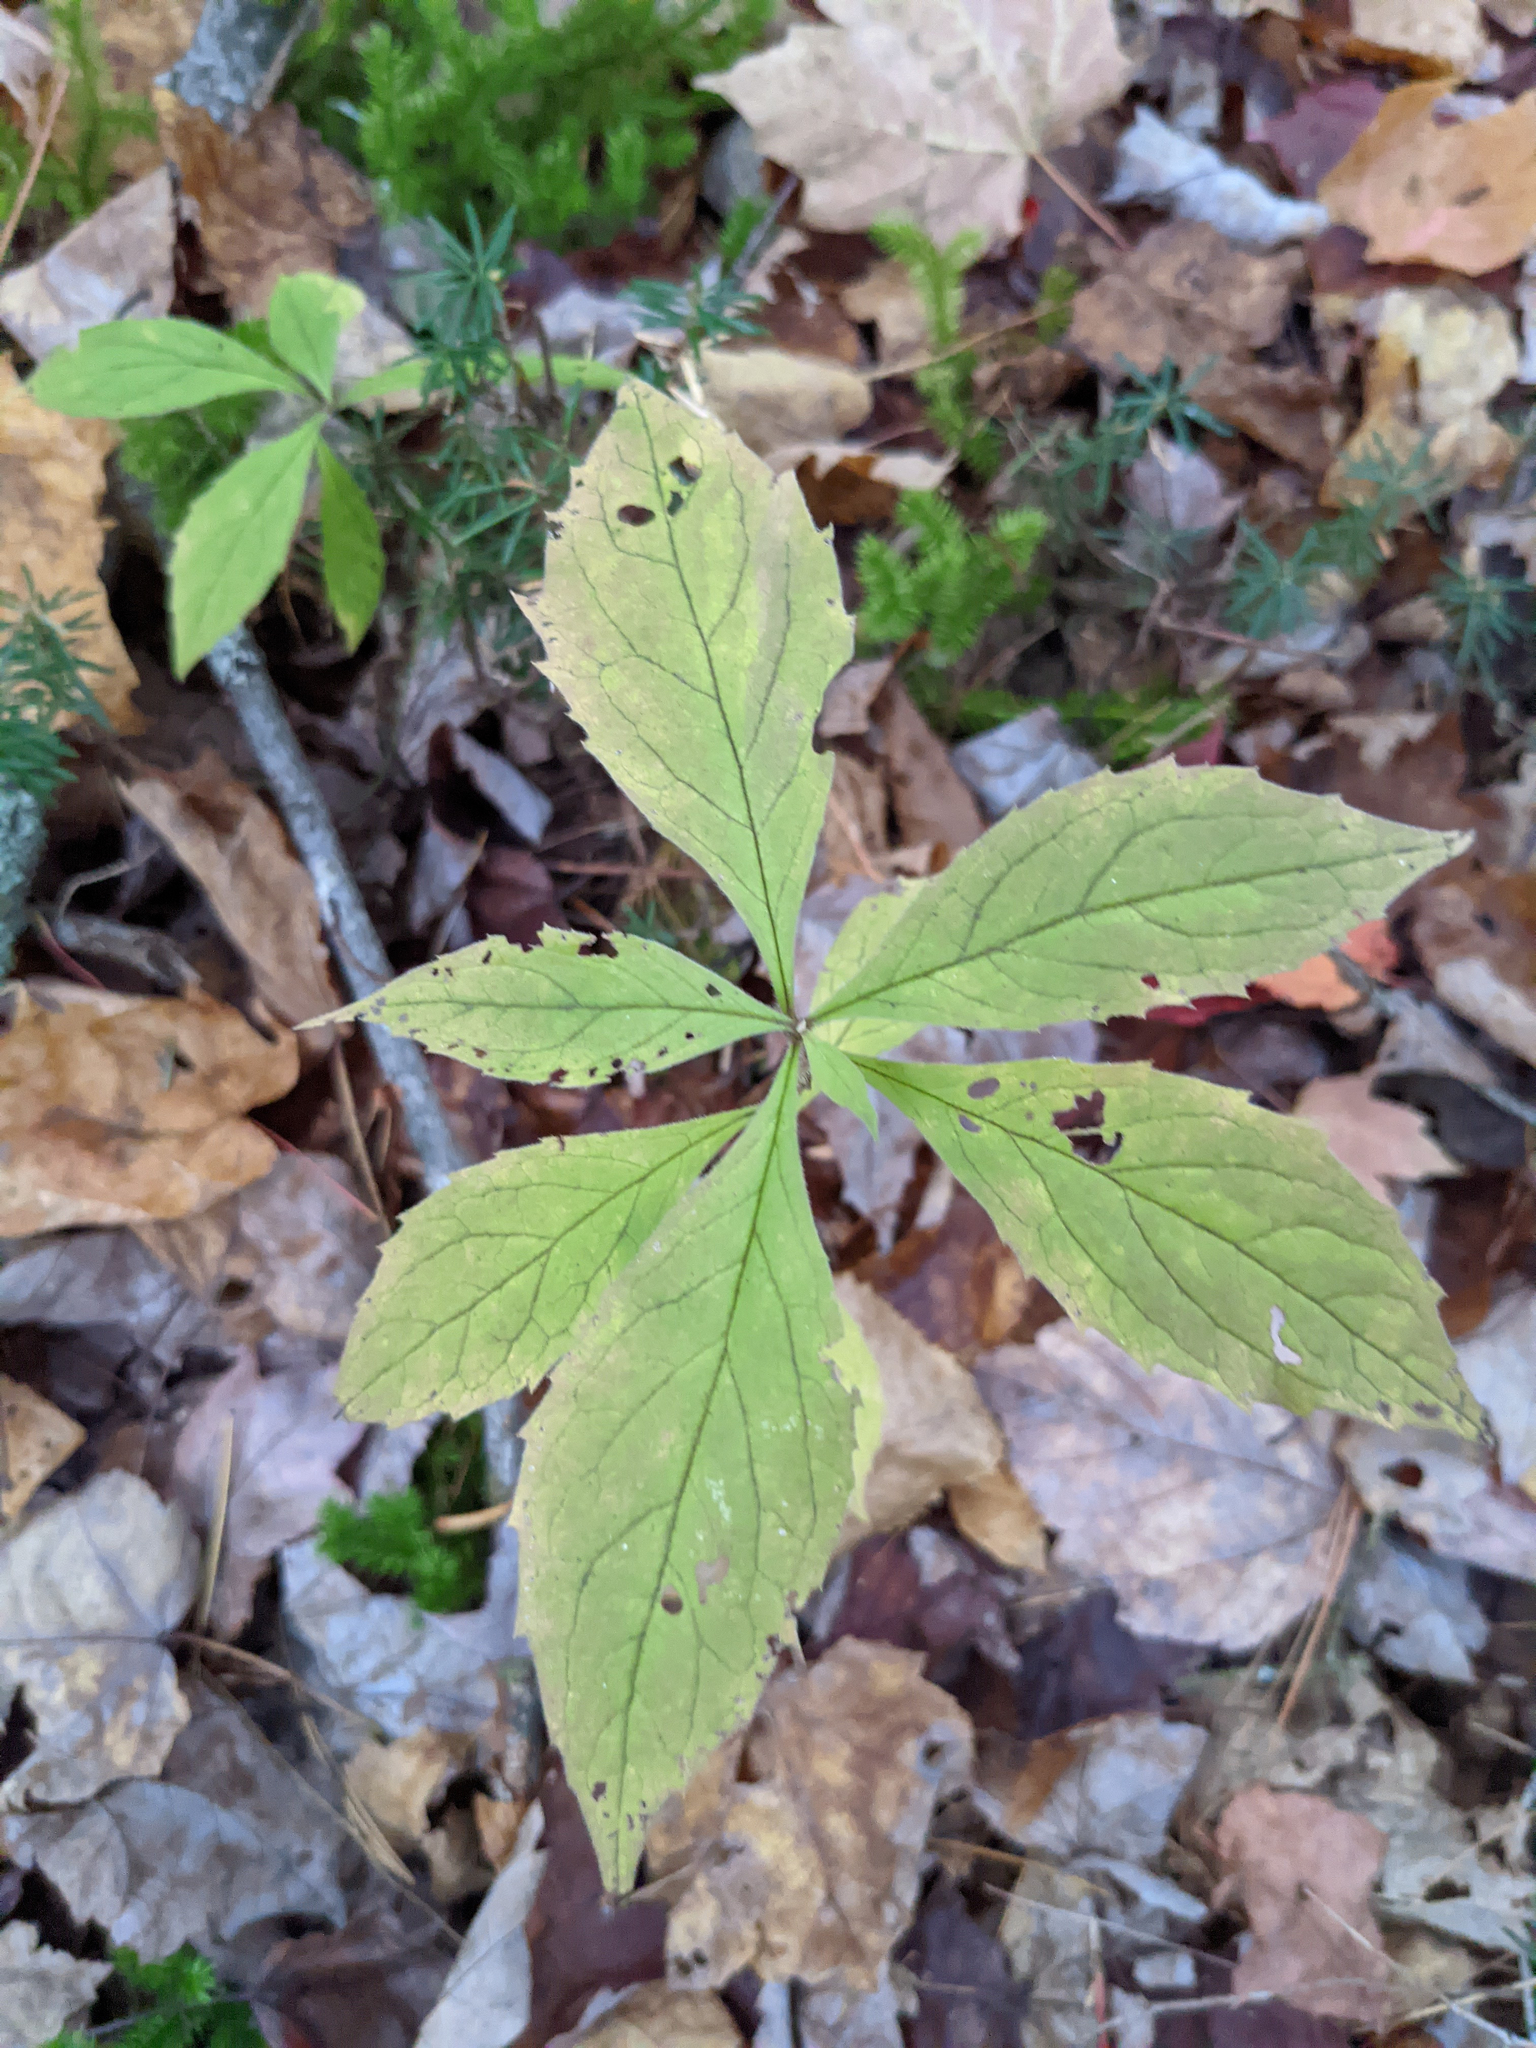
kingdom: Plantae
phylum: Tracheophyta
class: Magnoliopsida
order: Asterales
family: Asteraceae
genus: Oclemena
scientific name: Oclemena acuminata
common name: Mountain aster
